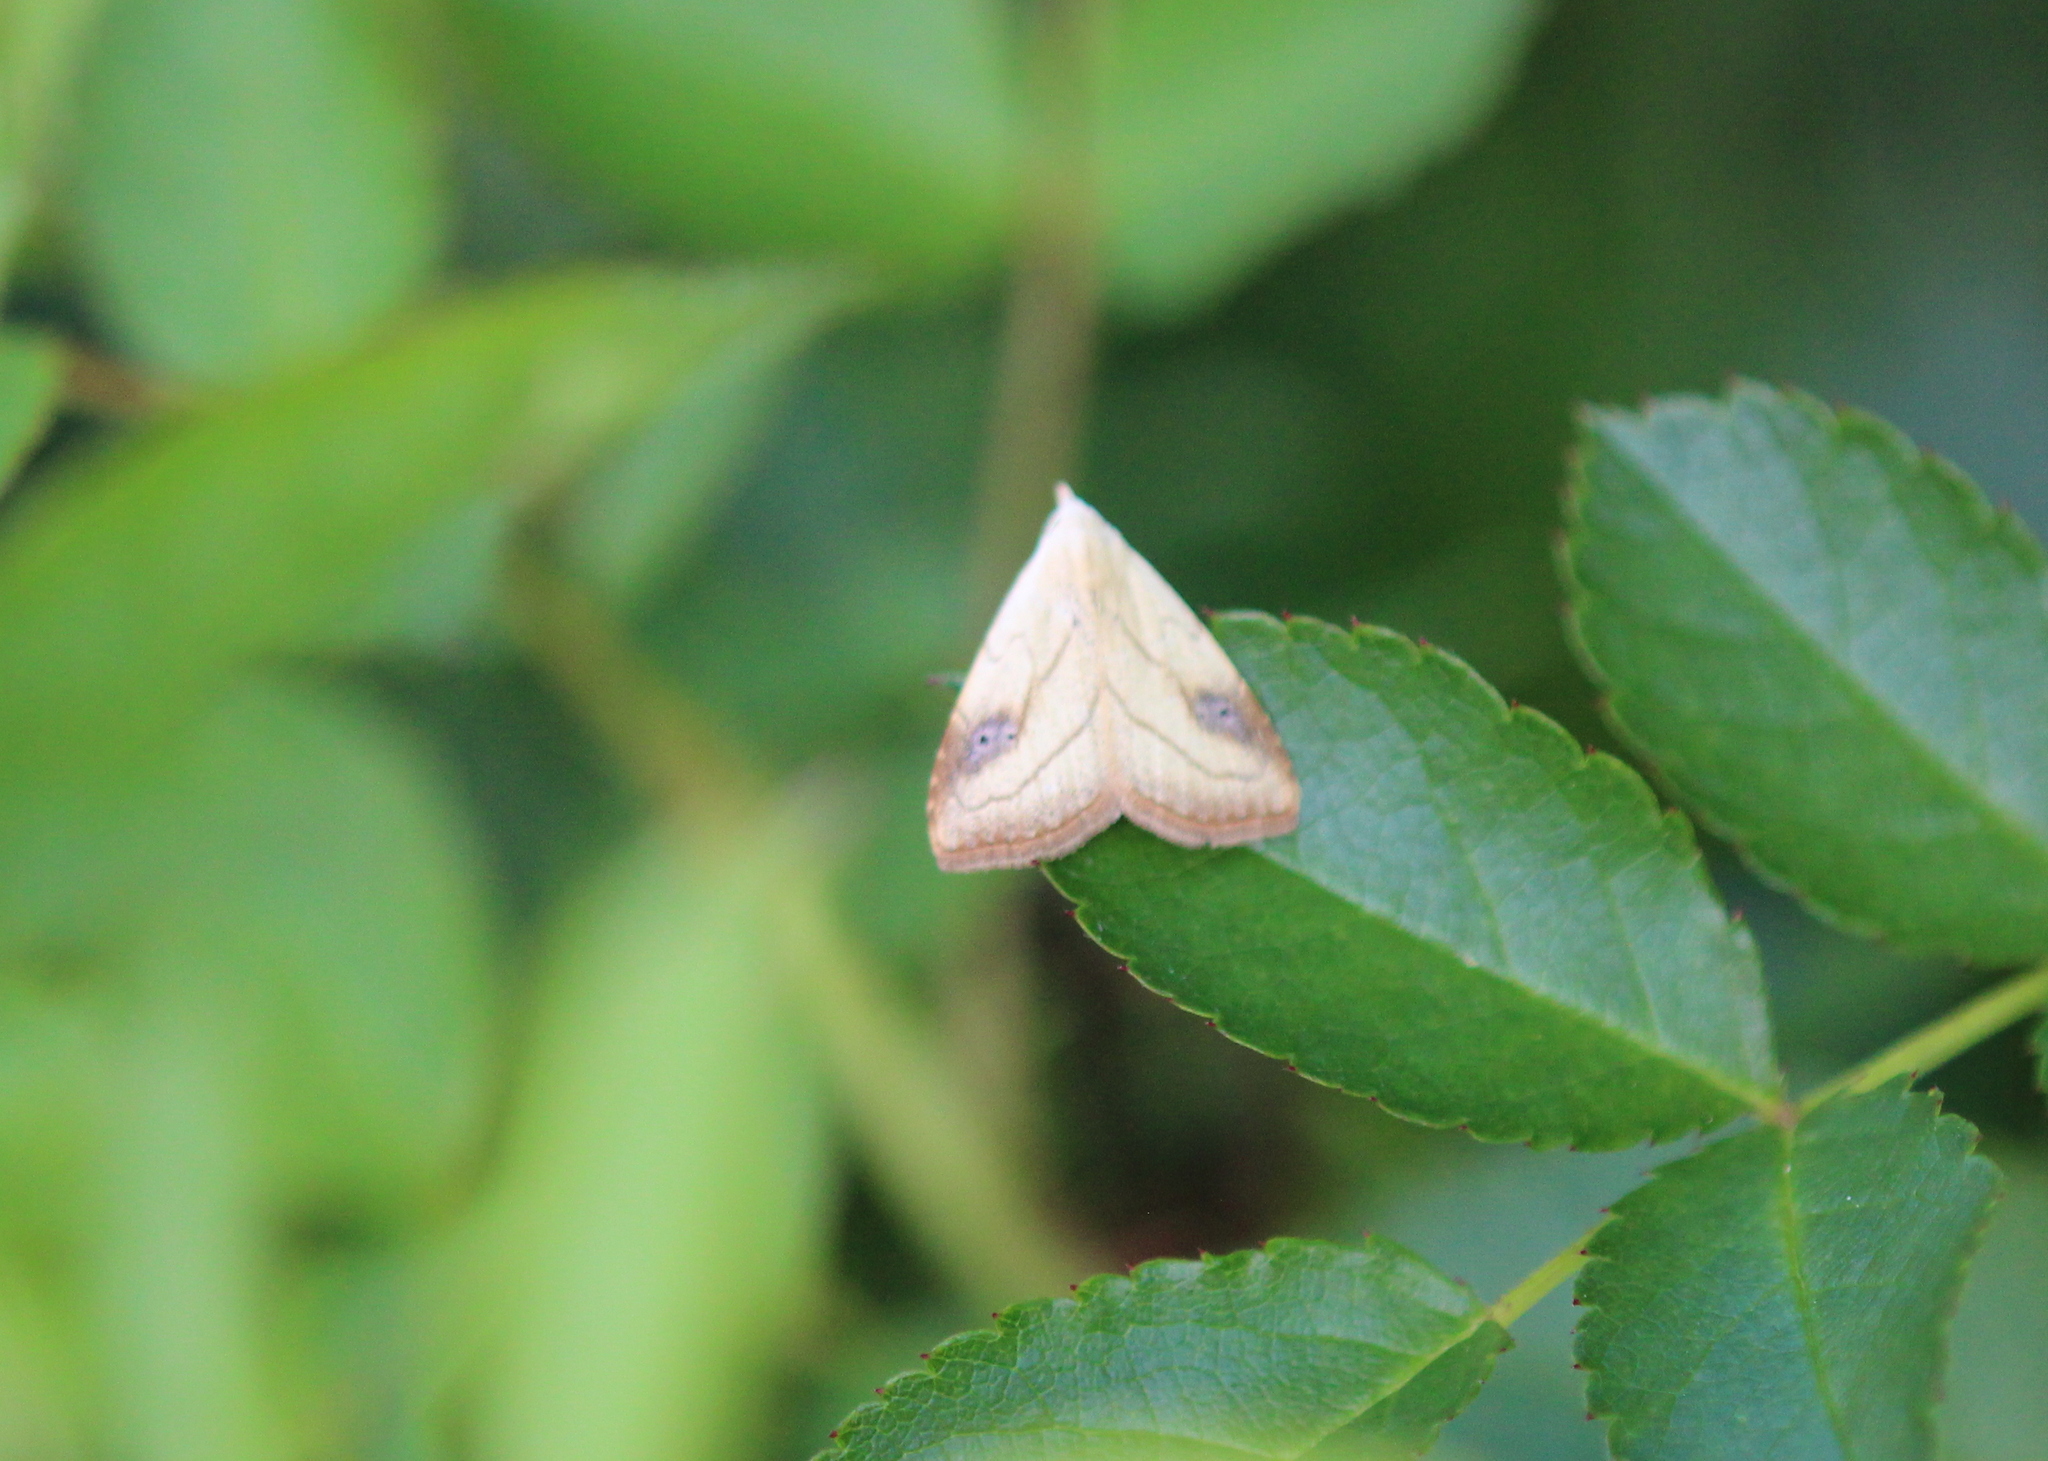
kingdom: Animalia
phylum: Arthropoda
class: Insecta
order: Lepidoptera
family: Erebidae
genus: Rivula
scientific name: Rivula propinqualis
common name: Spotted grass moth
